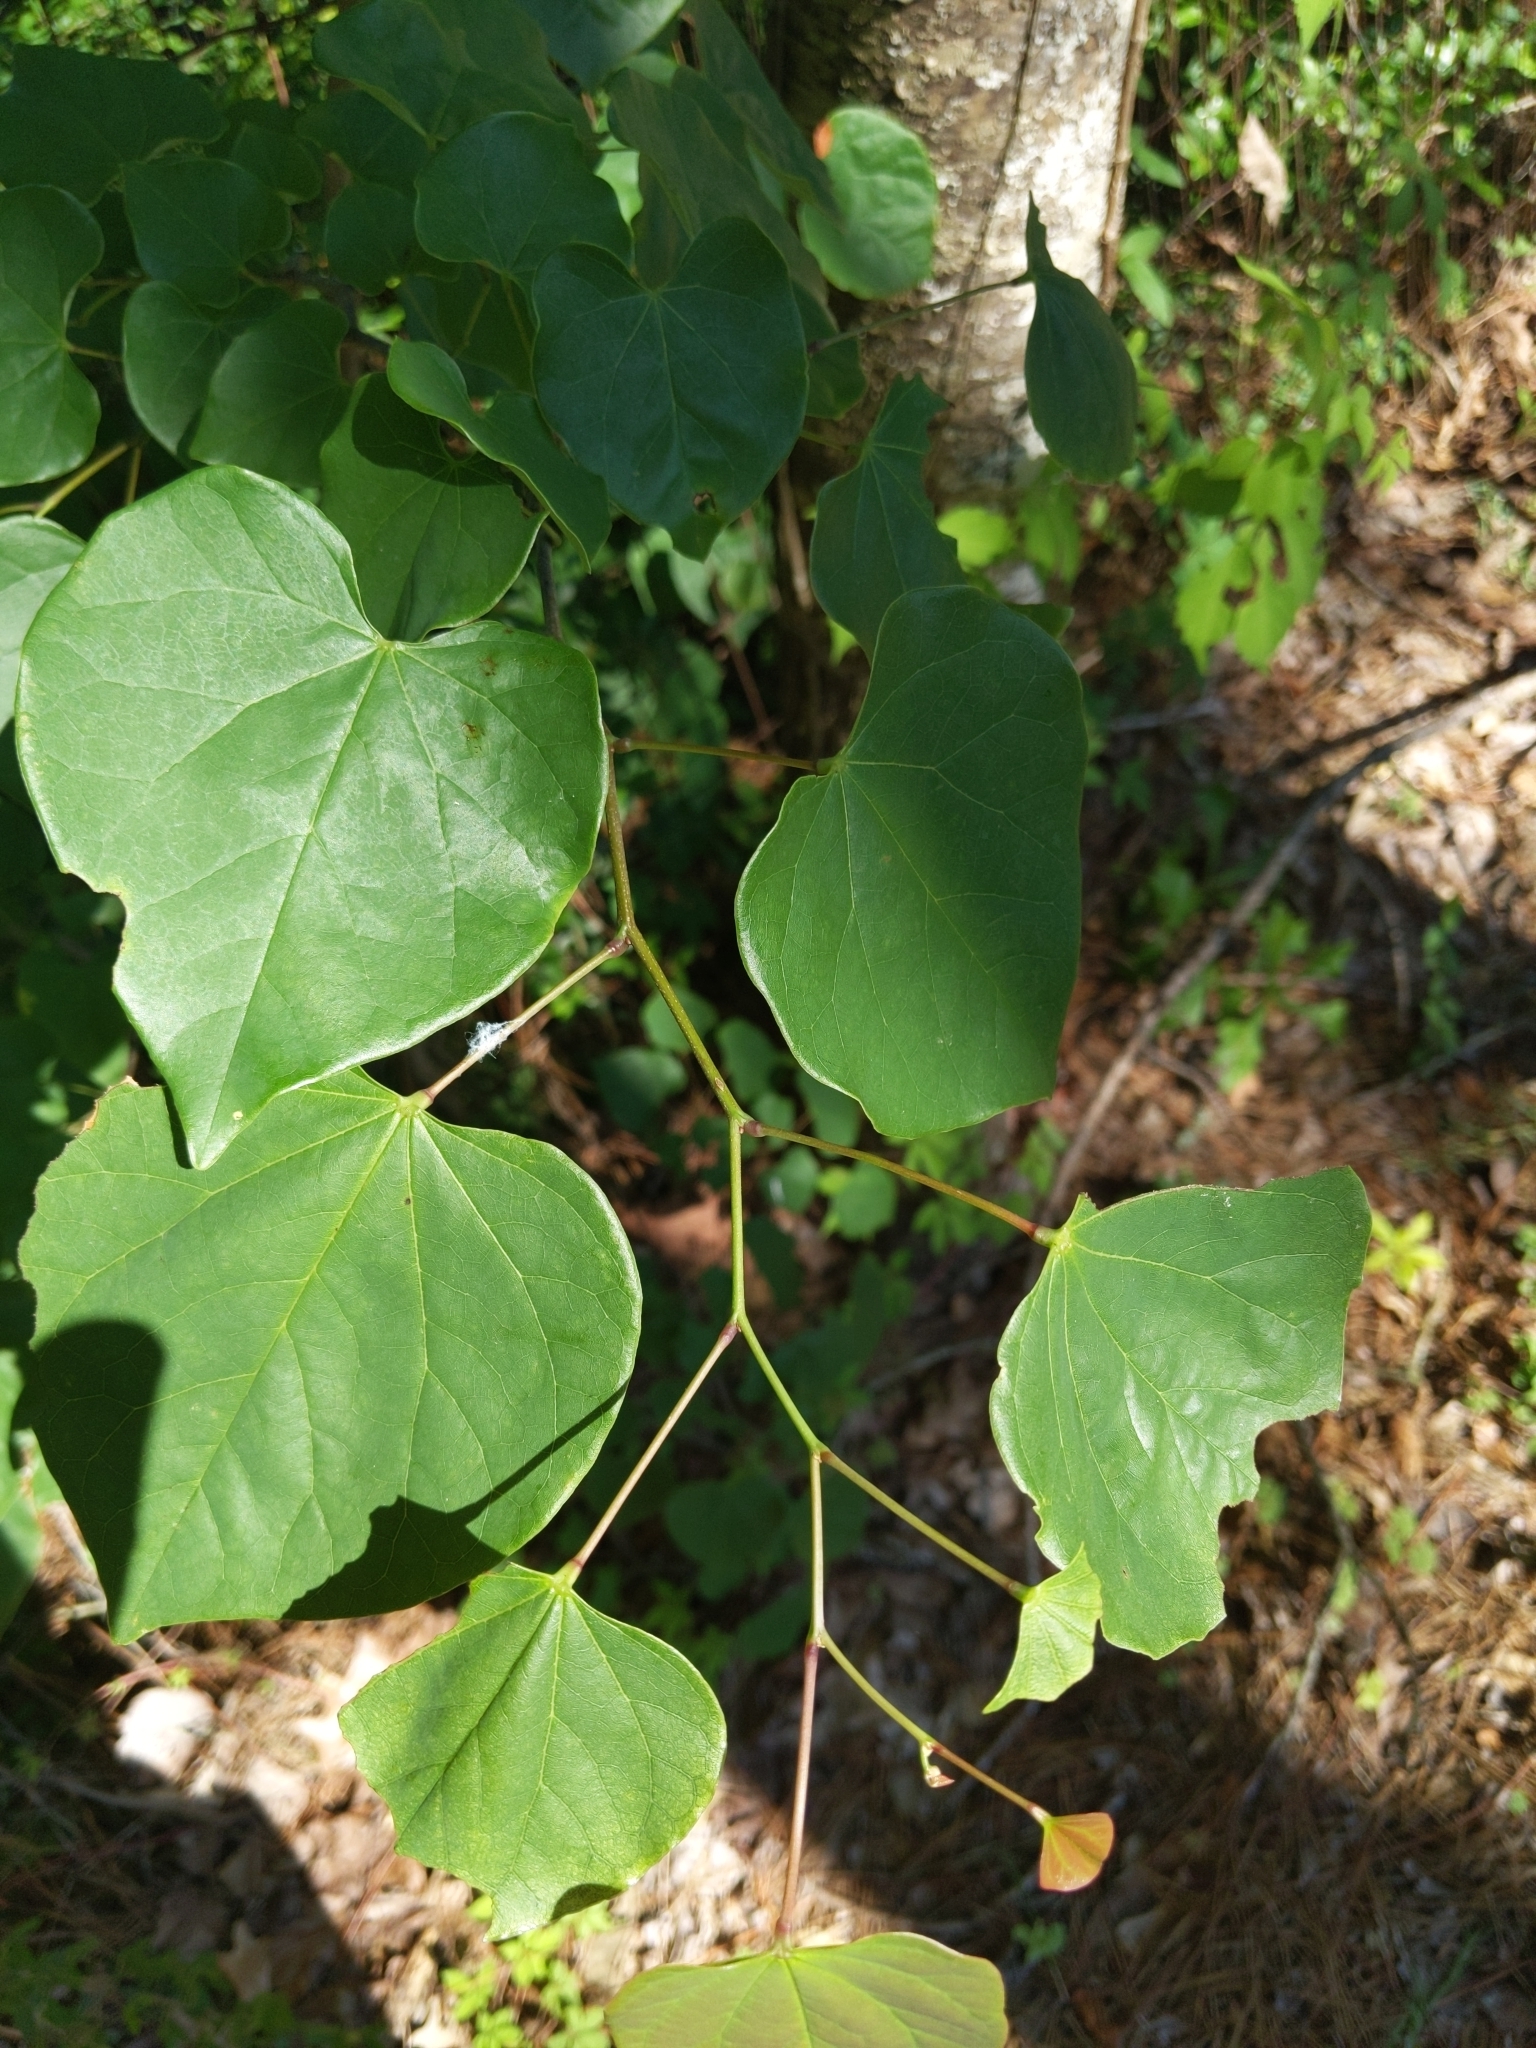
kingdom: Plantae
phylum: Tracheophyta
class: Magnoliopsida
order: Fabales
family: Fabaceae
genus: Cercis
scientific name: Cercis canadensis
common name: Eastern redbud
